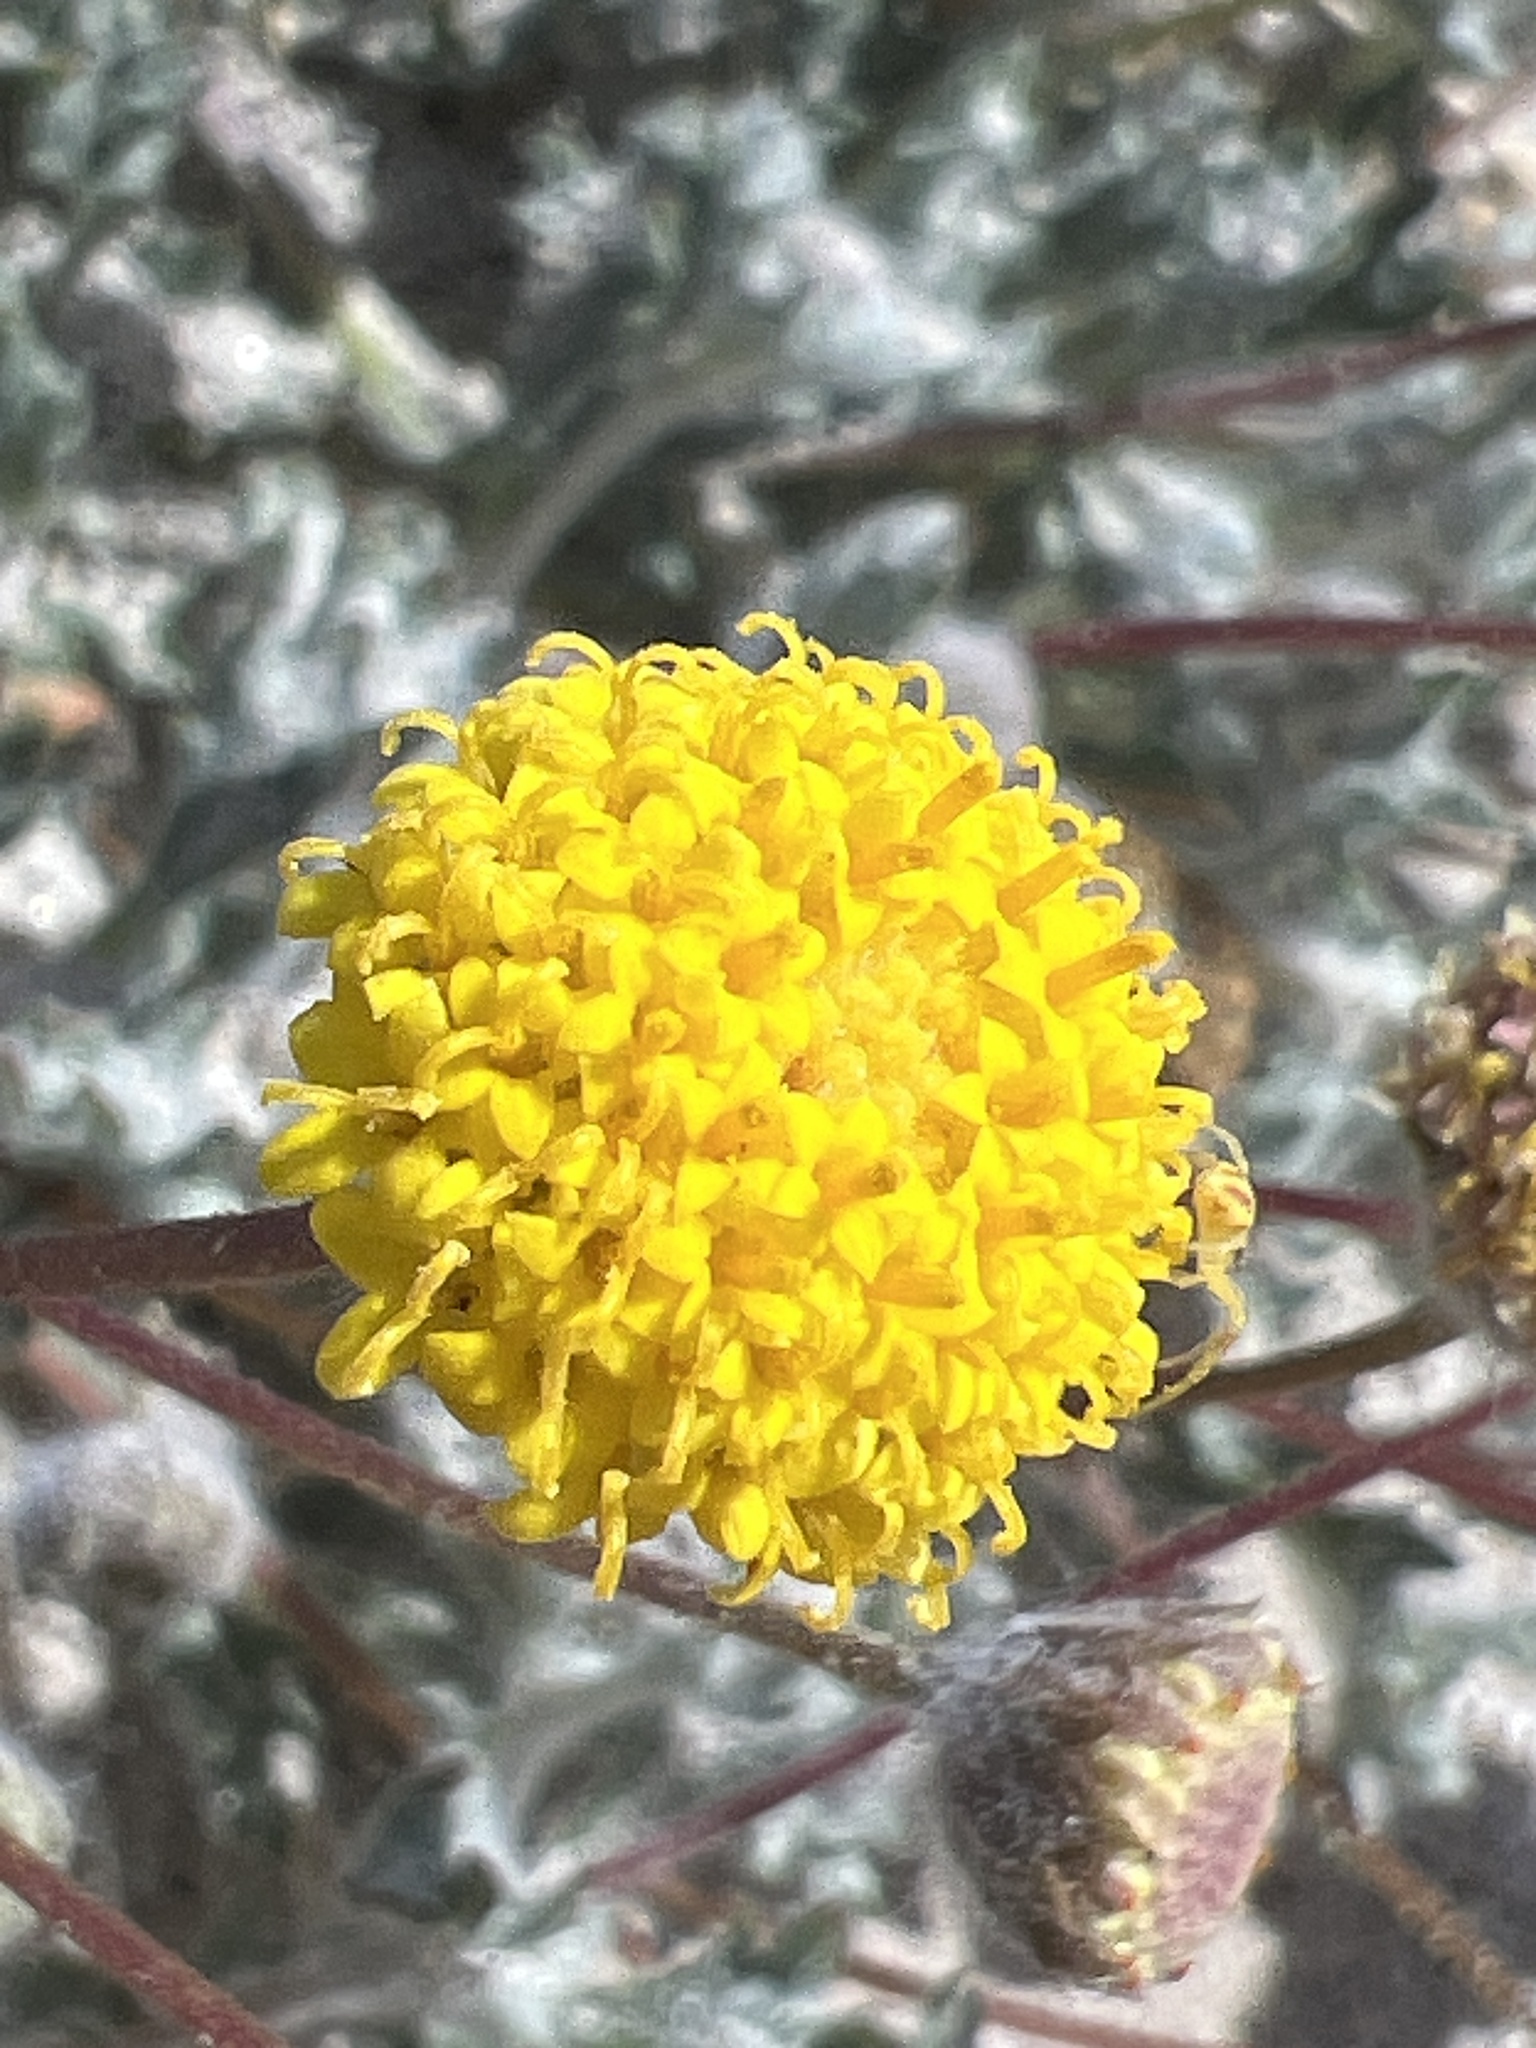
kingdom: Plantae
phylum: Tracheophyta
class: Magnoliopsida
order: Asterales
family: Asteraceae
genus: Trichoptilium
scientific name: Trichoptilium incisum
